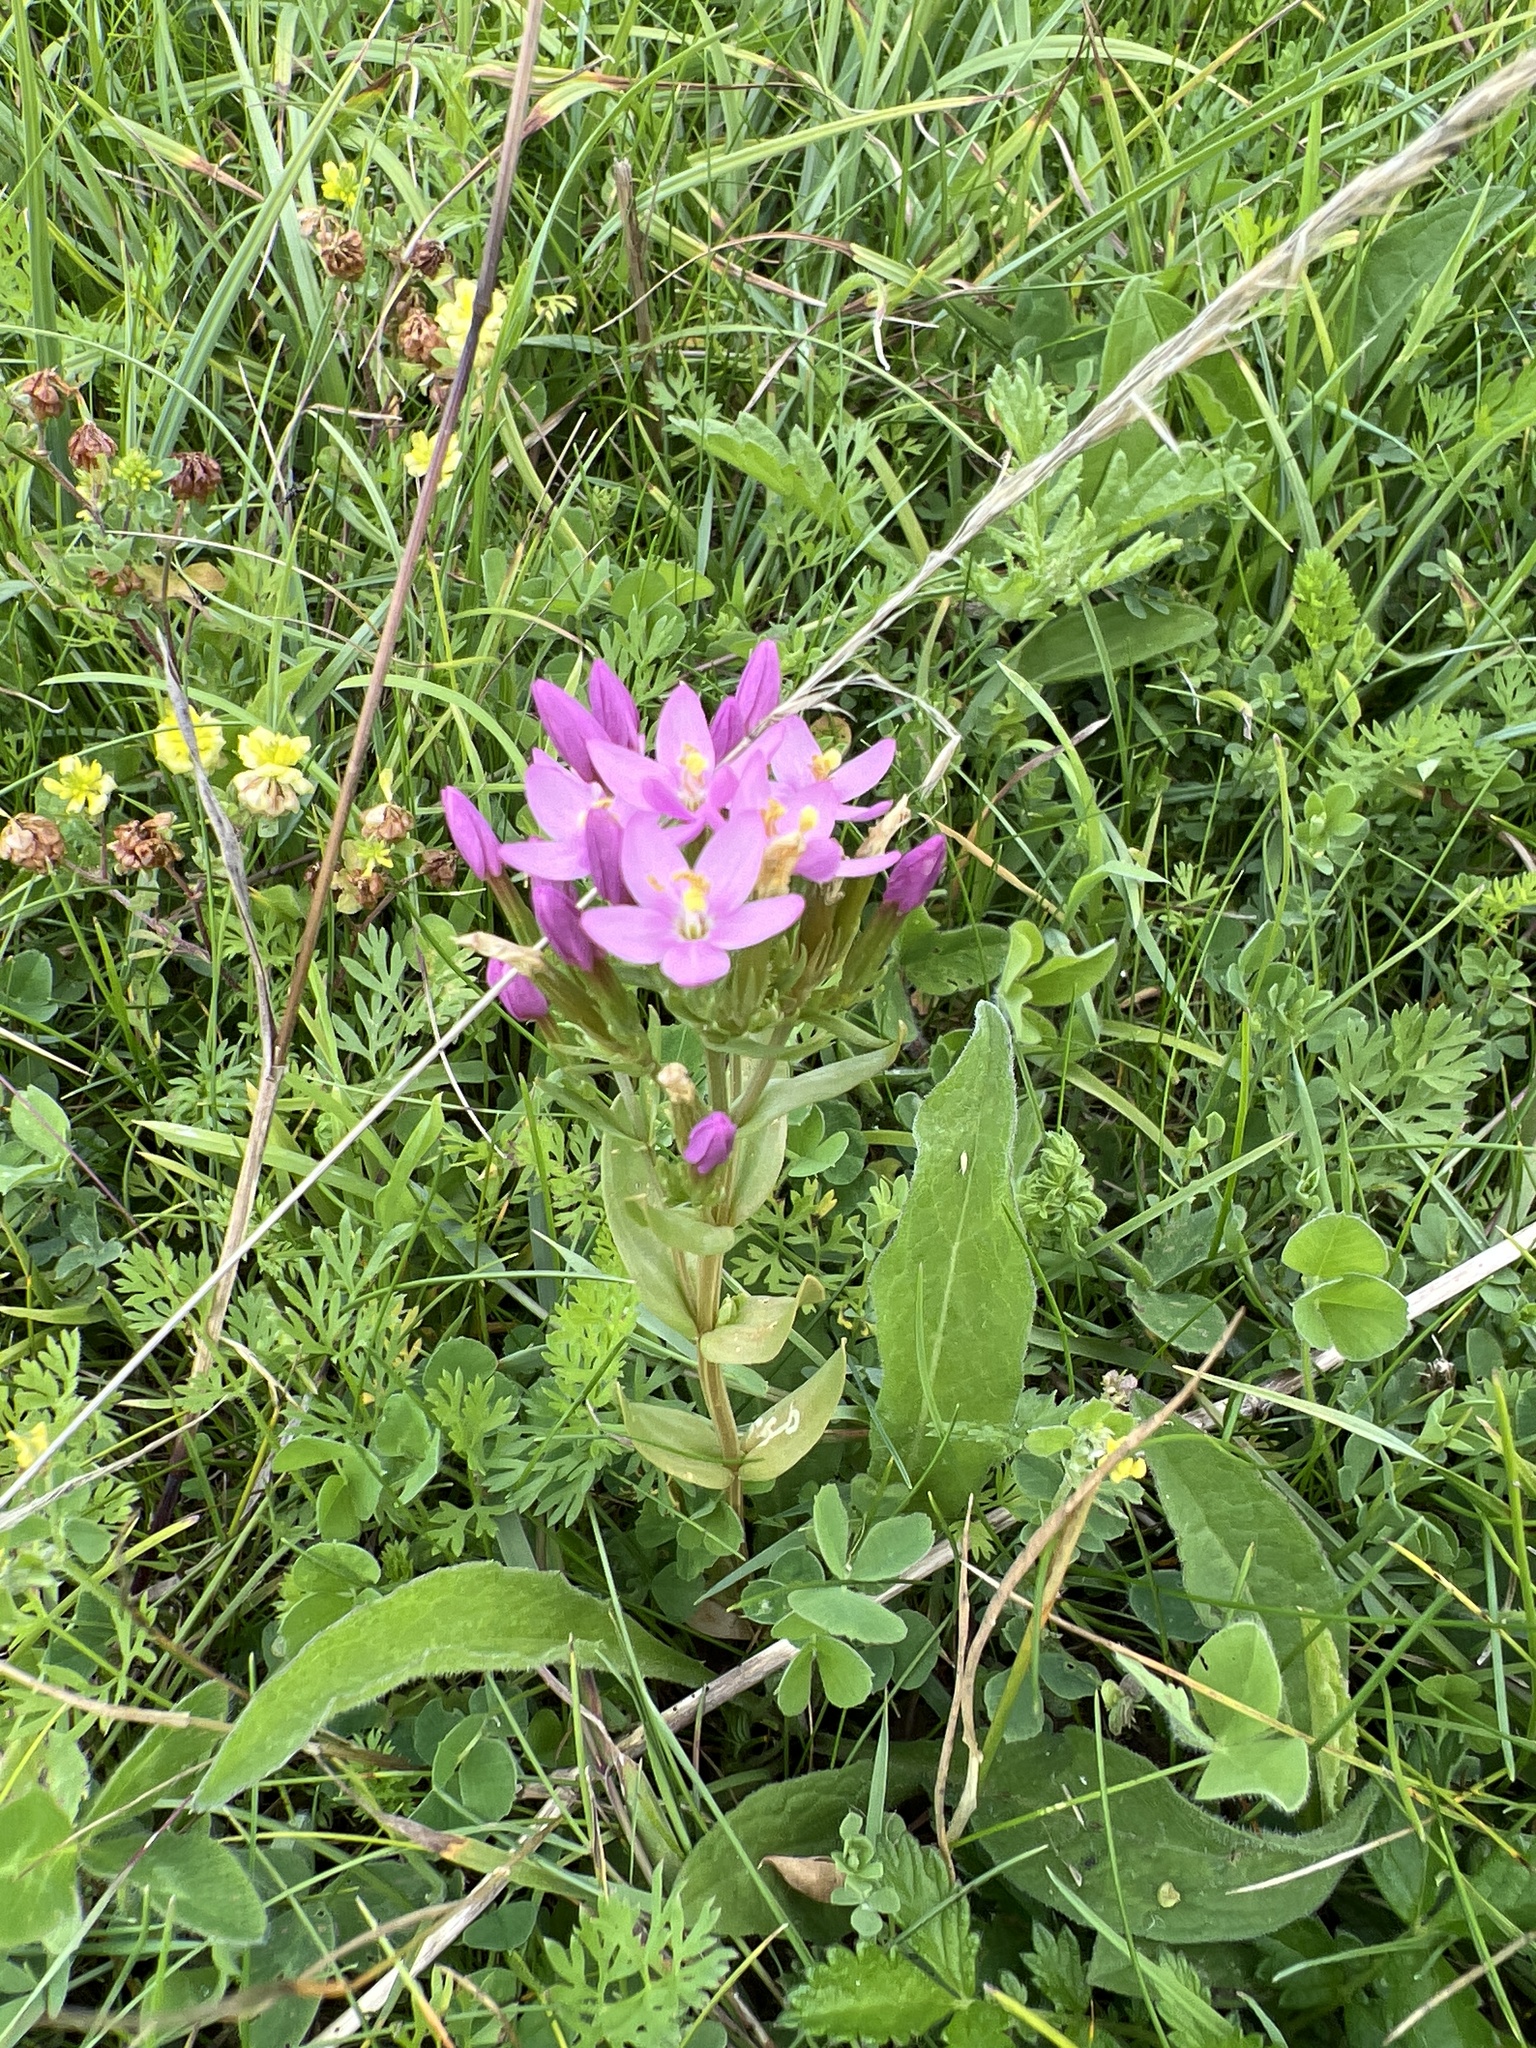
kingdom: Plantae
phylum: Tracheophyta
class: Magnoliopsida
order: Gentianales
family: Gentianaceae
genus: Centaurium
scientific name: Centaurium erythraea
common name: Common centaury
